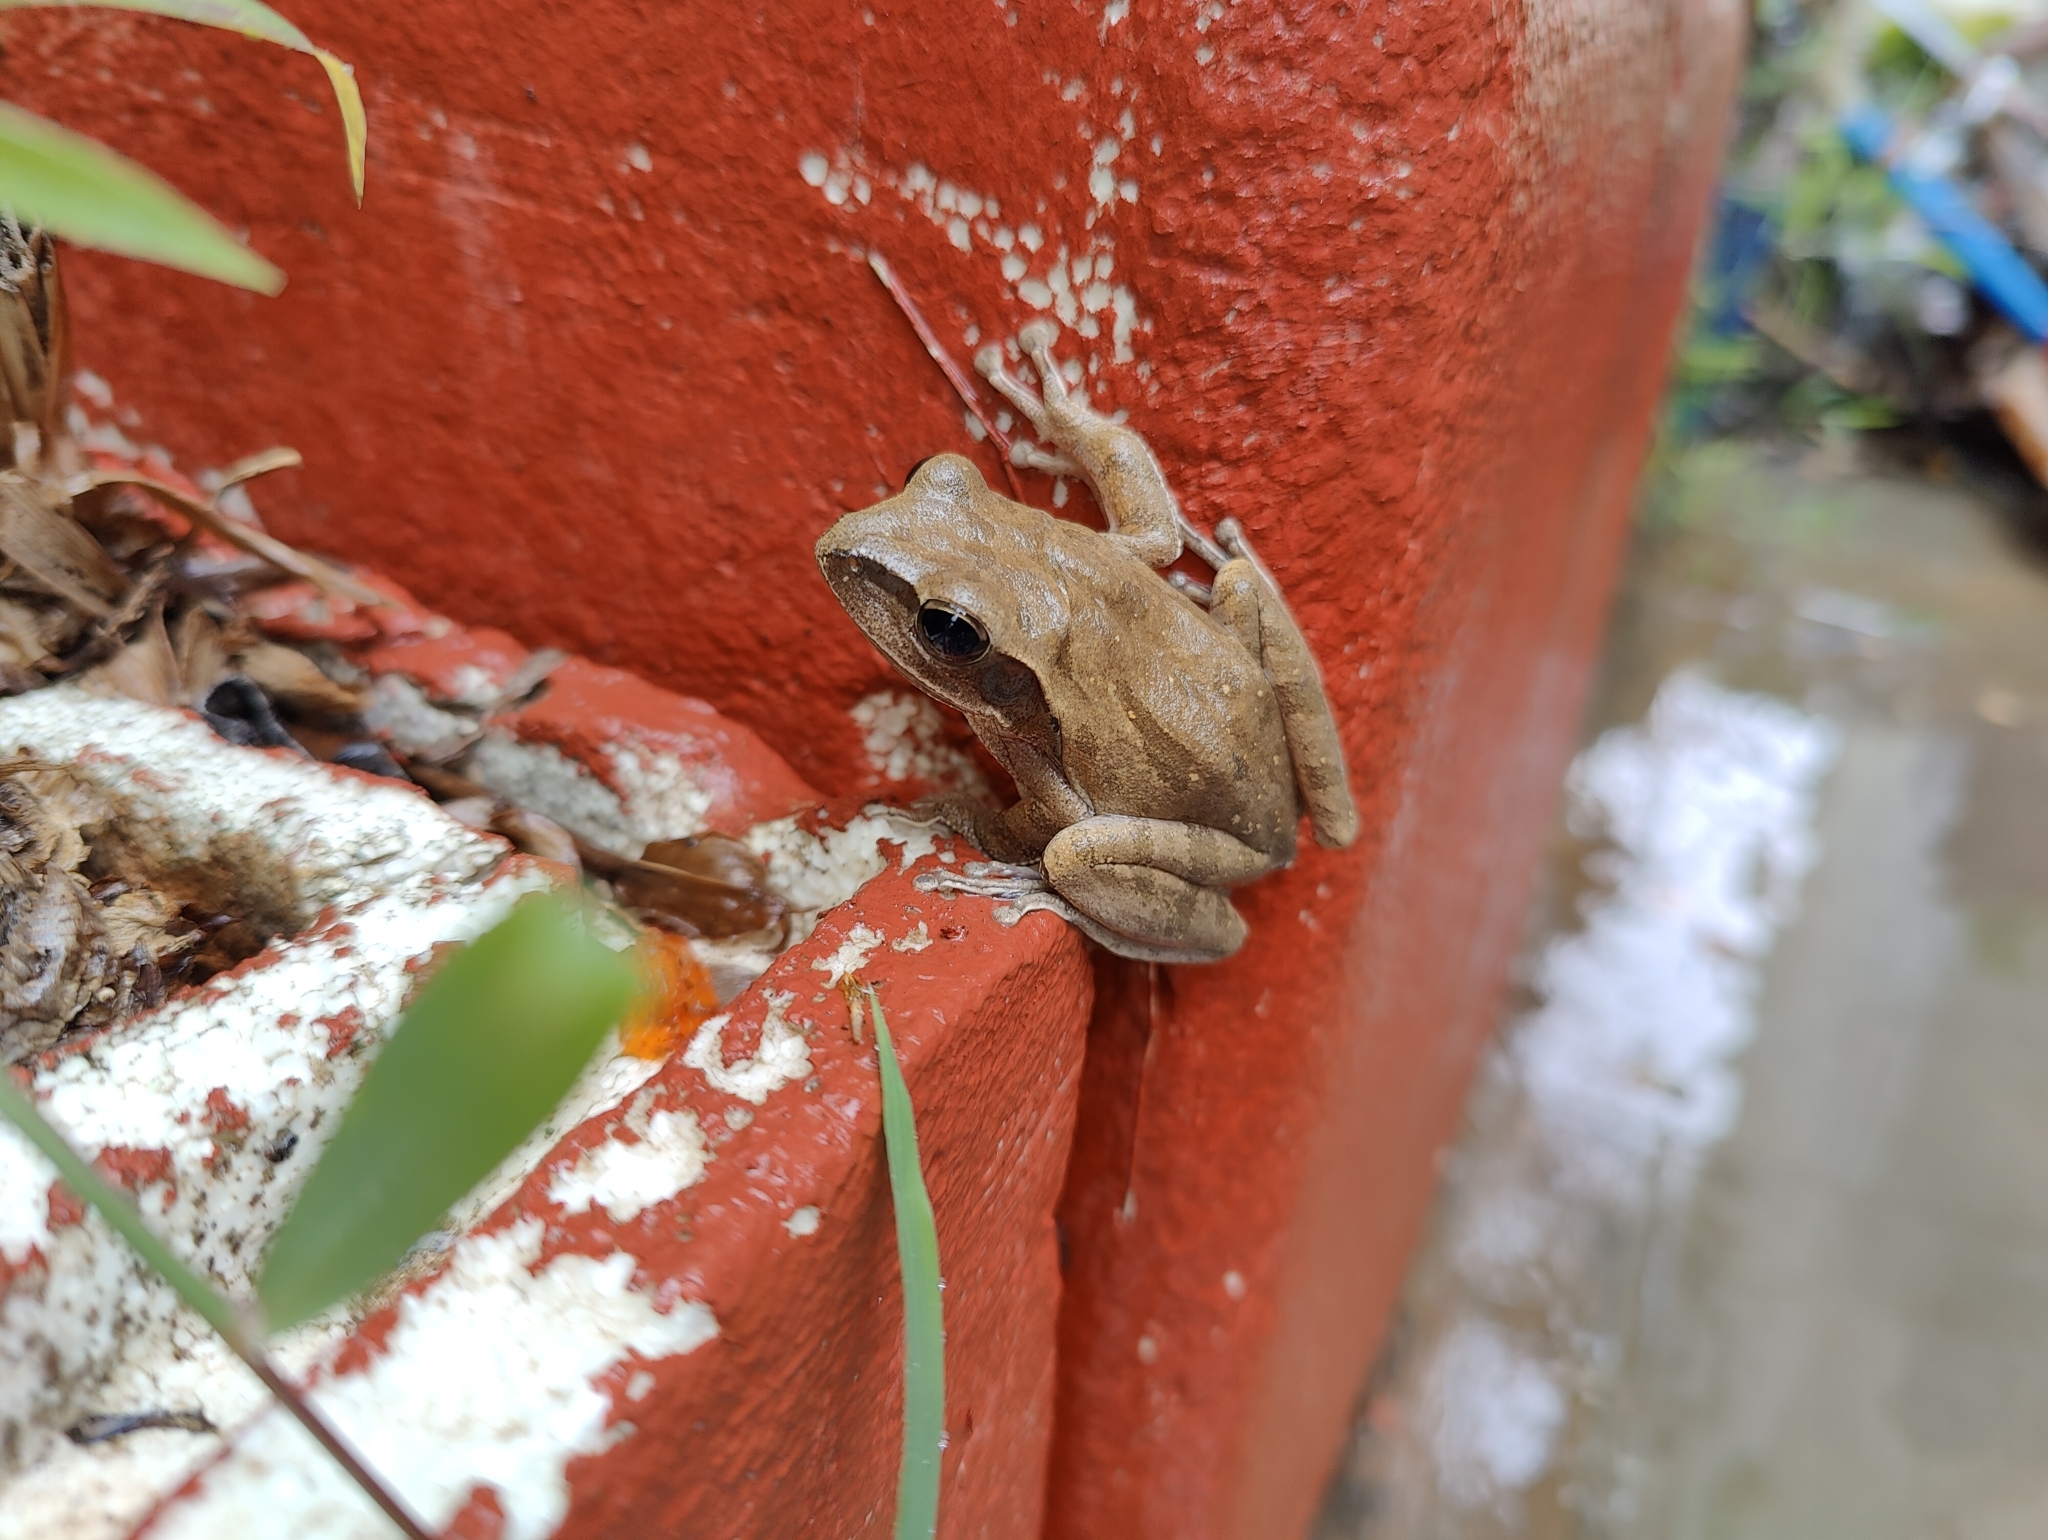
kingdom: Animalia
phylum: Chordata
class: Amphibia
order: Anura
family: Rhacophoridae
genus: Polypedates
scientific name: Polypedates maculatus
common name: Himalayan tree frog
